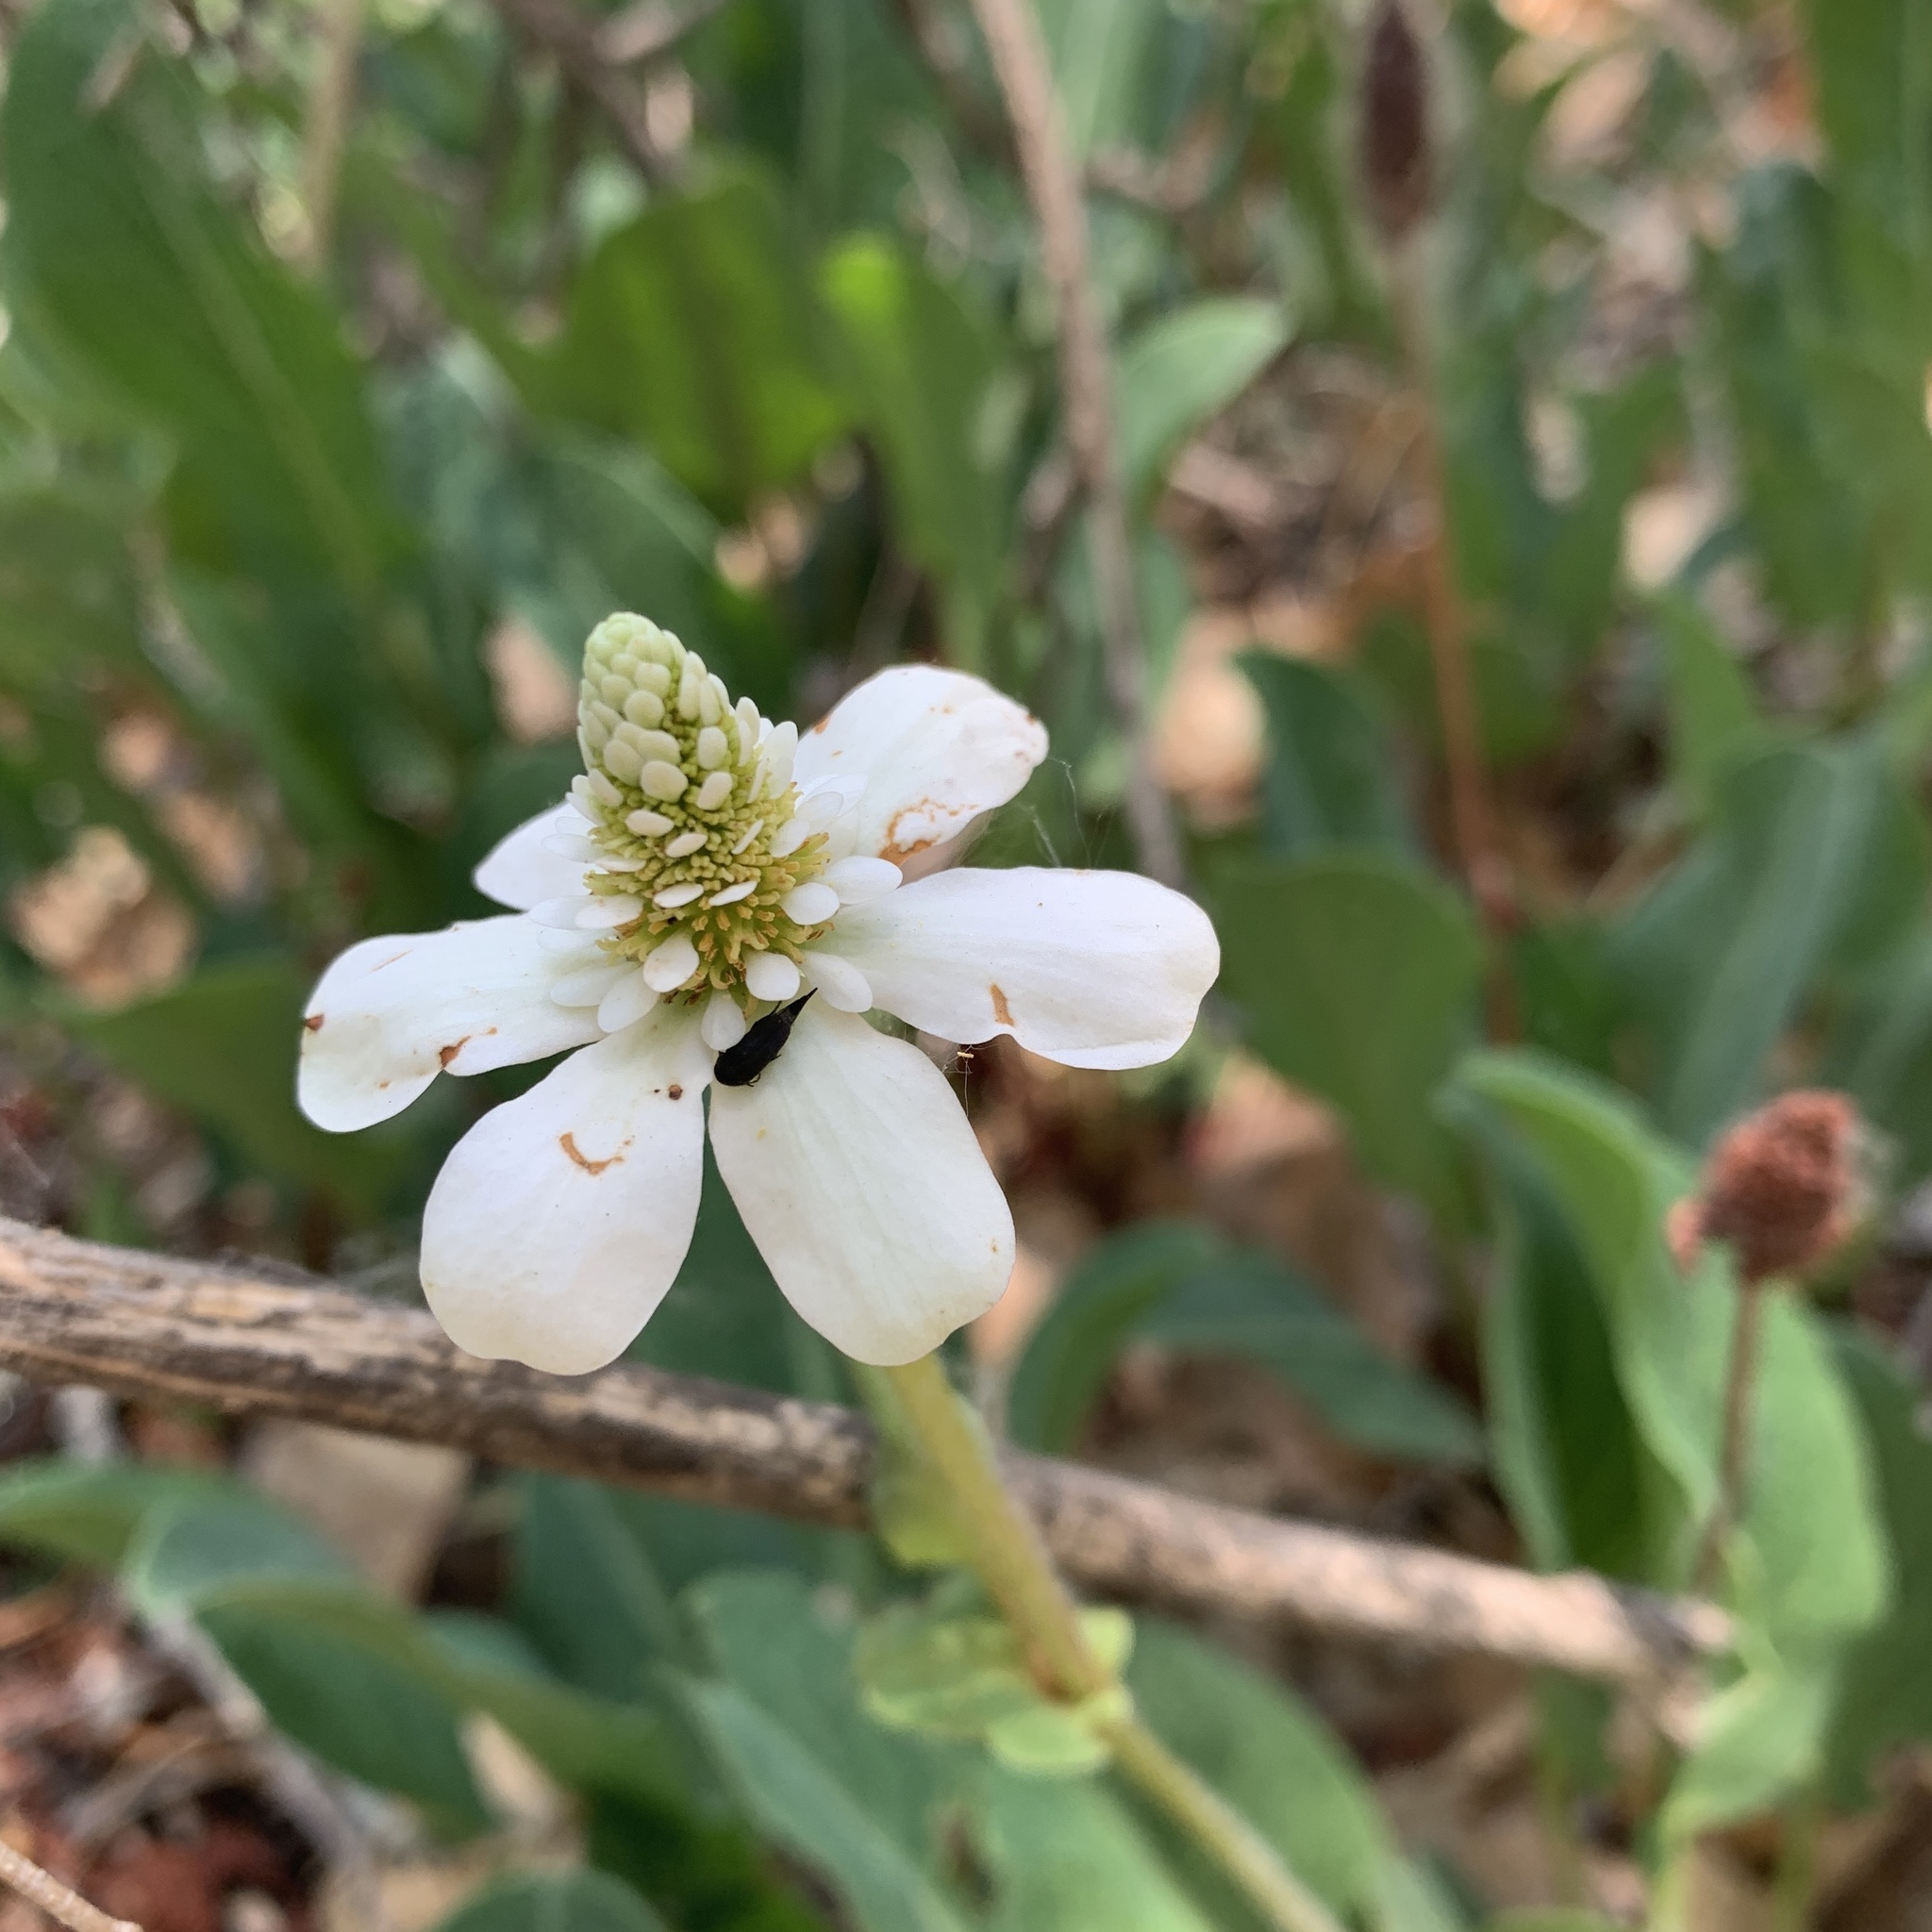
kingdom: Plantae
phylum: Tracheophyta
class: Magnoliopsida
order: Piperales
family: Saururaceae
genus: Anemopsis
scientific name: Anemopsis californica
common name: Apache-beads
